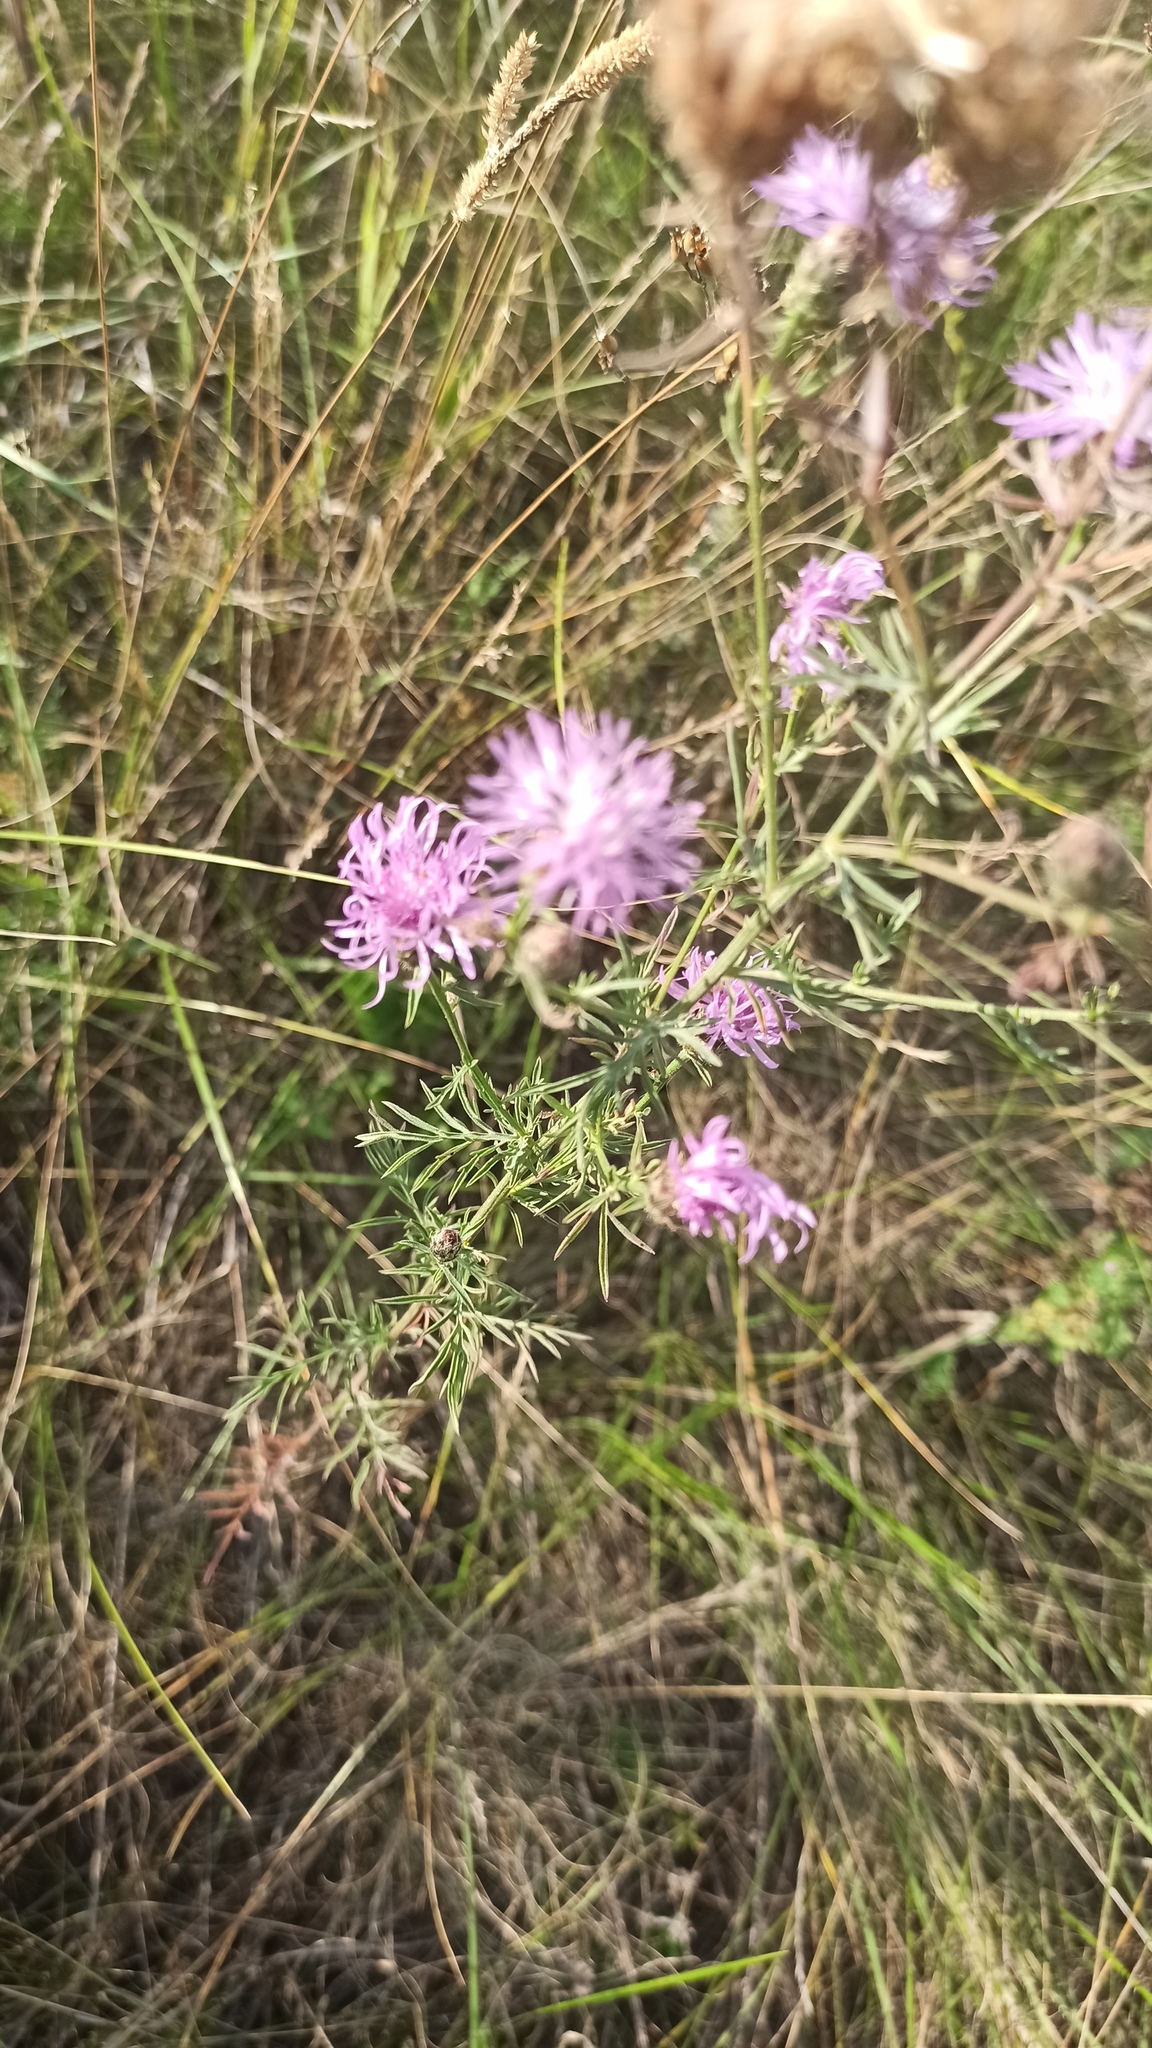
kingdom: Plantae
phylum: Tracheophyta
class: Magnoliopsida
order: Asterales
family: Asteraceae
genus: Centaurea
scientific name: Centaurea stoebe
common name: Spotted knapweed
